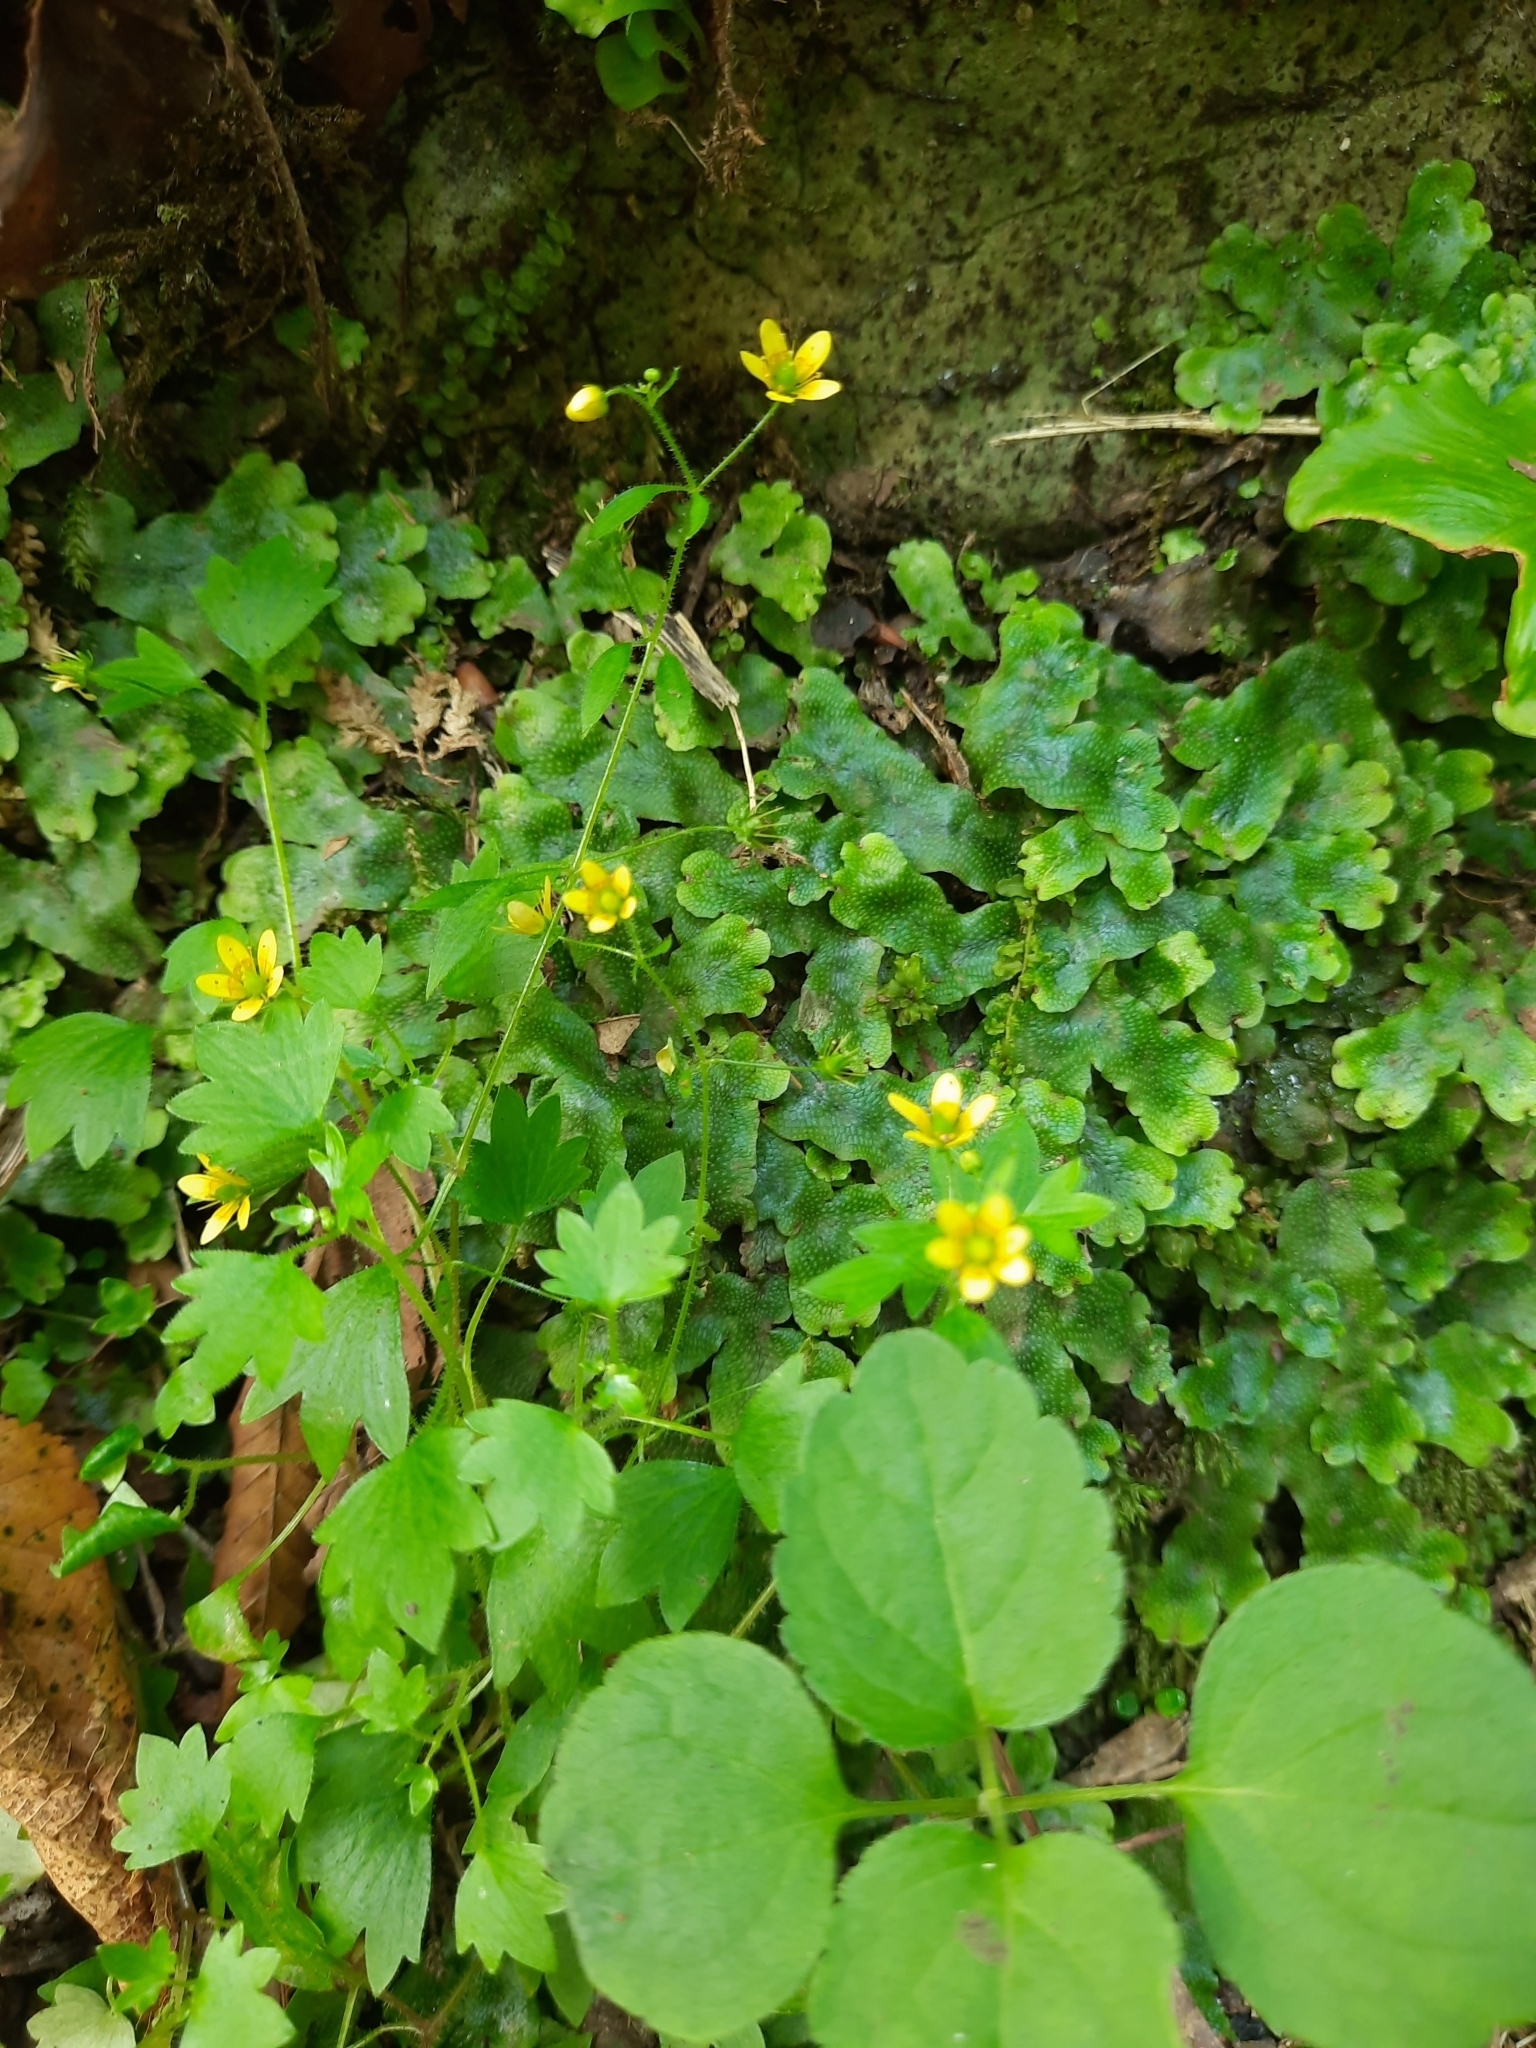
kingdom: Plantae
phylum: Tracheophyta
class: Magnoliopsida
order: Saxifragales
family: Saxifragaceae
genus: Saxifraga
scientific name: Saxifraga cymbalaria
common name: Celandine saxifrage
